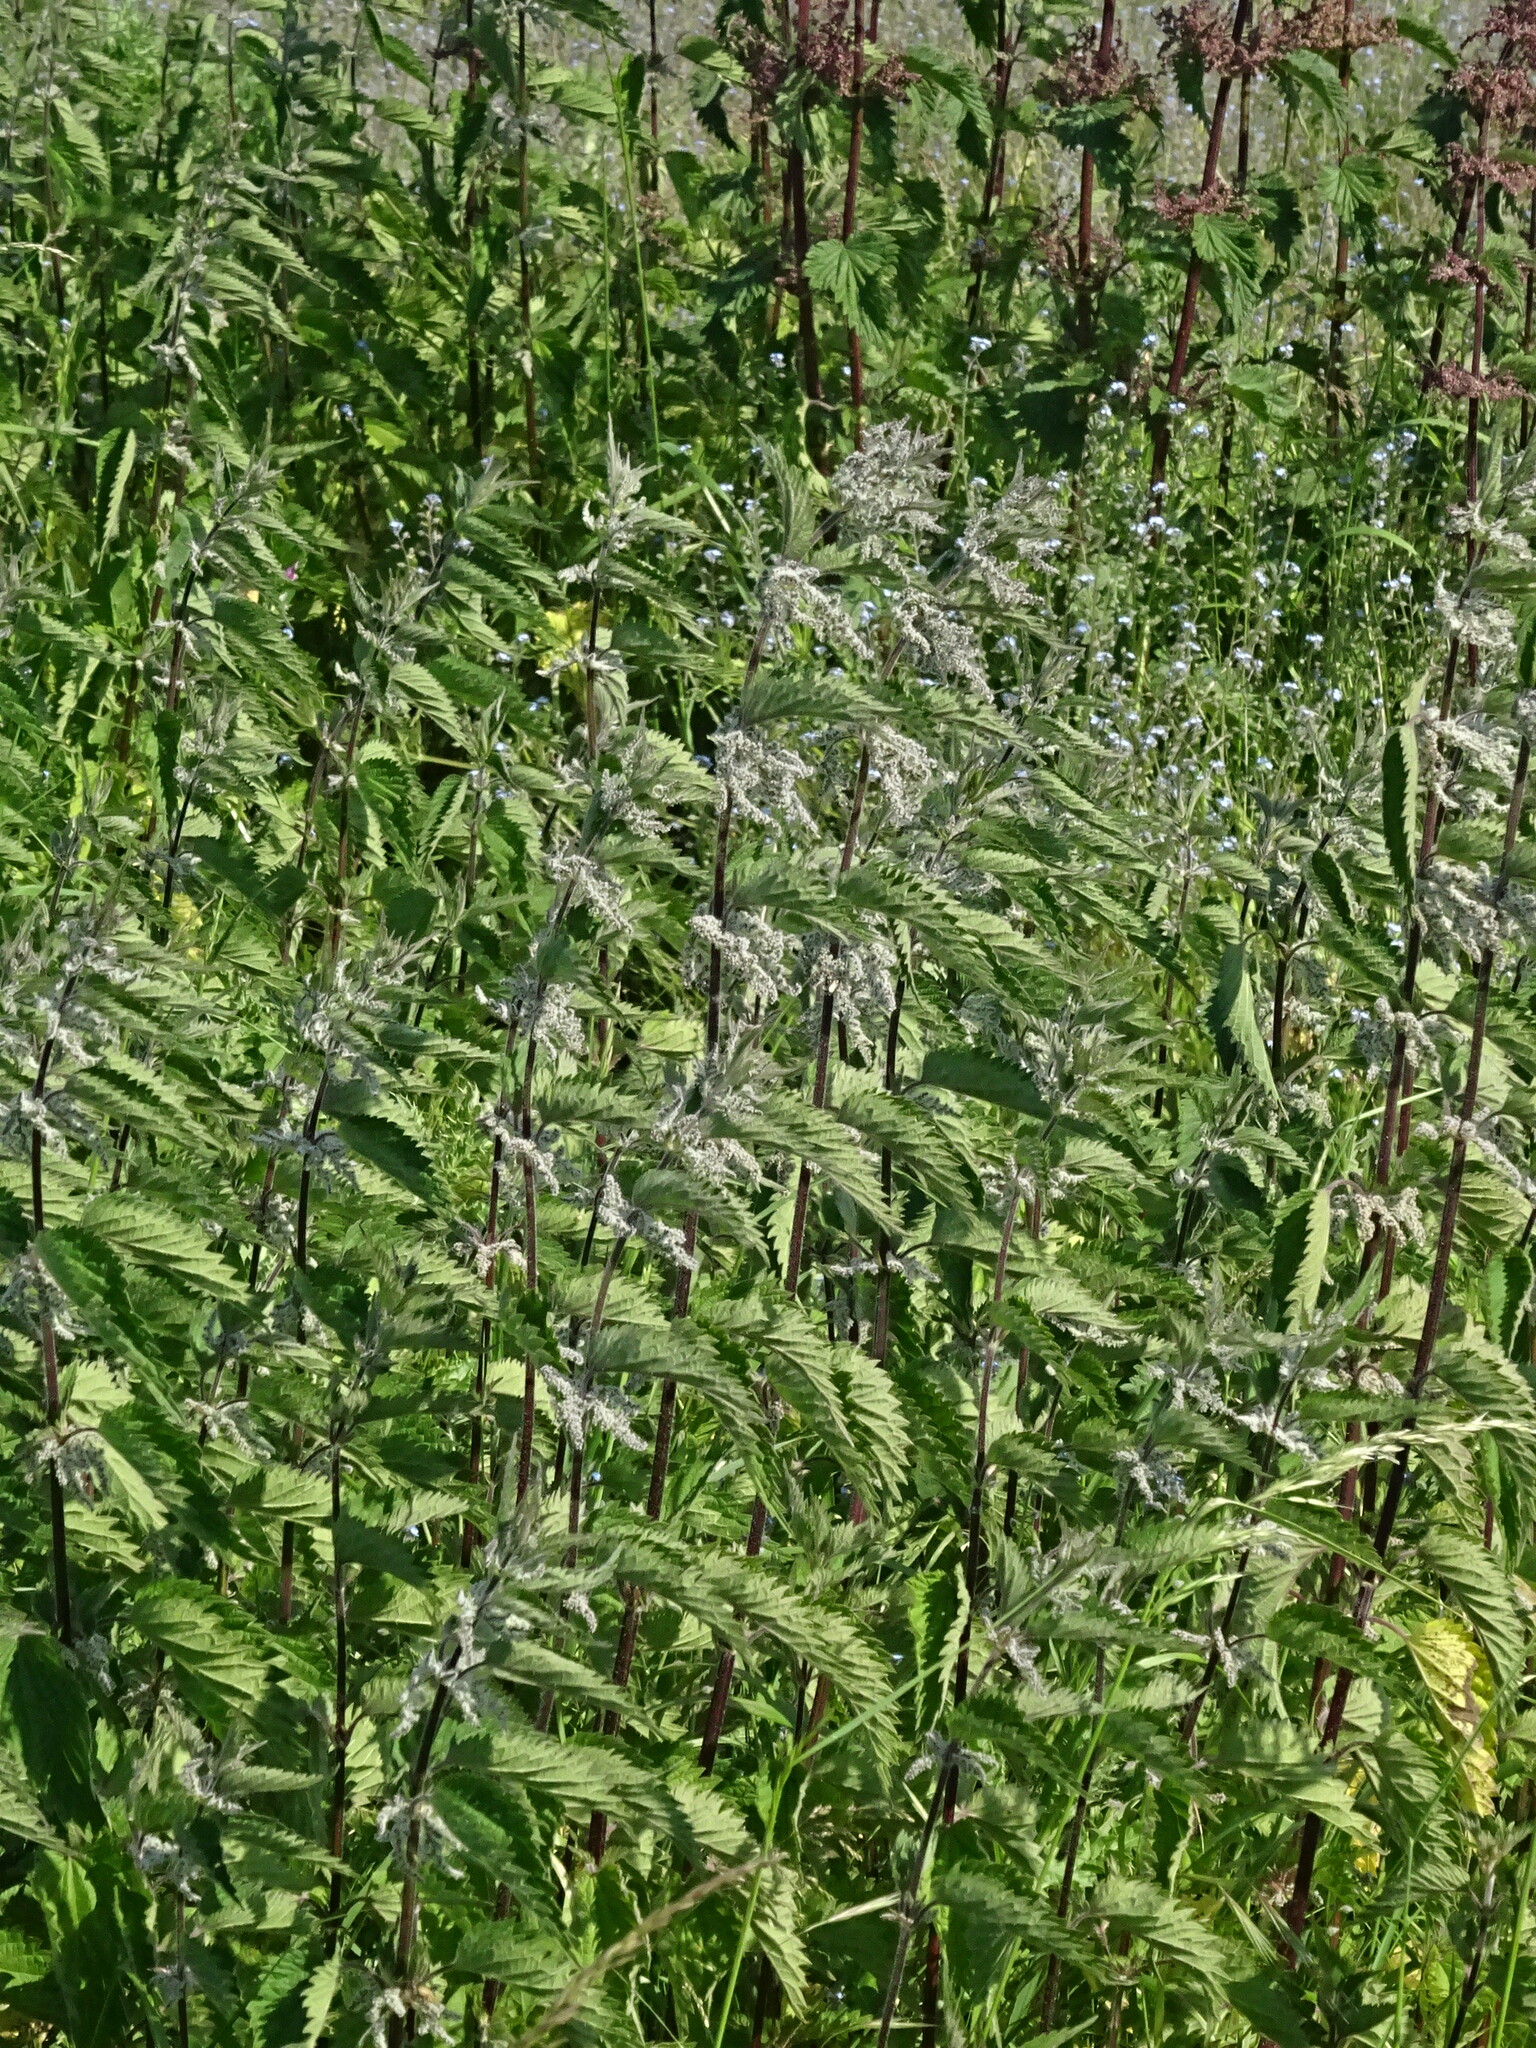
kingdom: Plantae
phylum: Tracheophyta
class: Magnoliopsida
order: Rosales
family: Urticaceae
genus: Urtica
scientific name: Urtica dioica
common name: Common nettle
